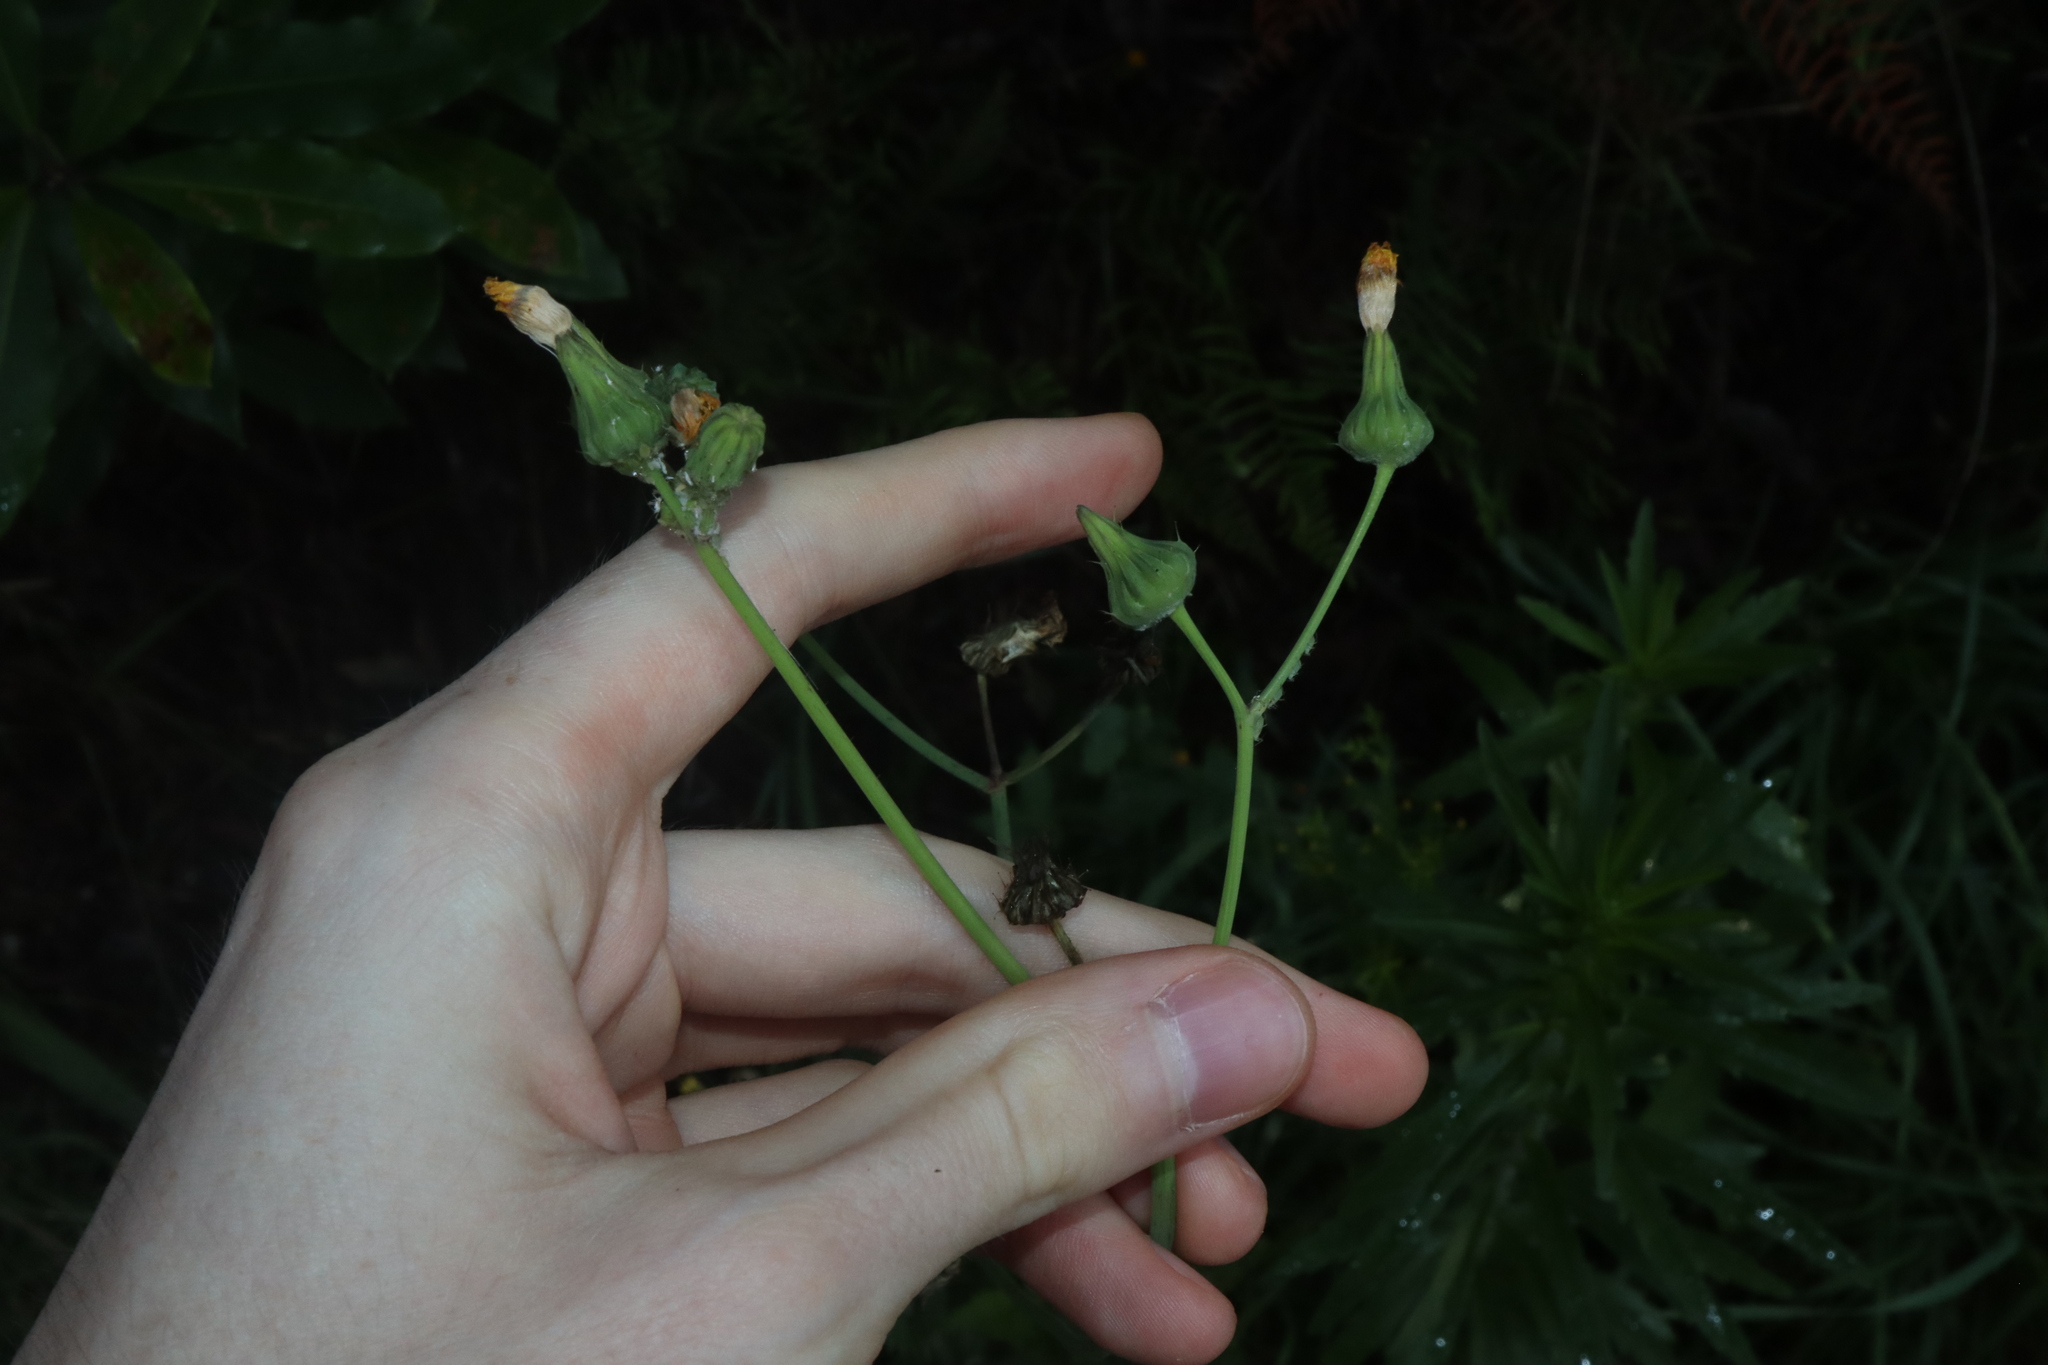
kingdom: Plantae
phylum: Tracheophyta
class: Magnoliopsida
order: Asterales
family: Asteraceae
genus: Sonchus
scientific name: Sonchus oleraceus
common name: Common sowthistle
